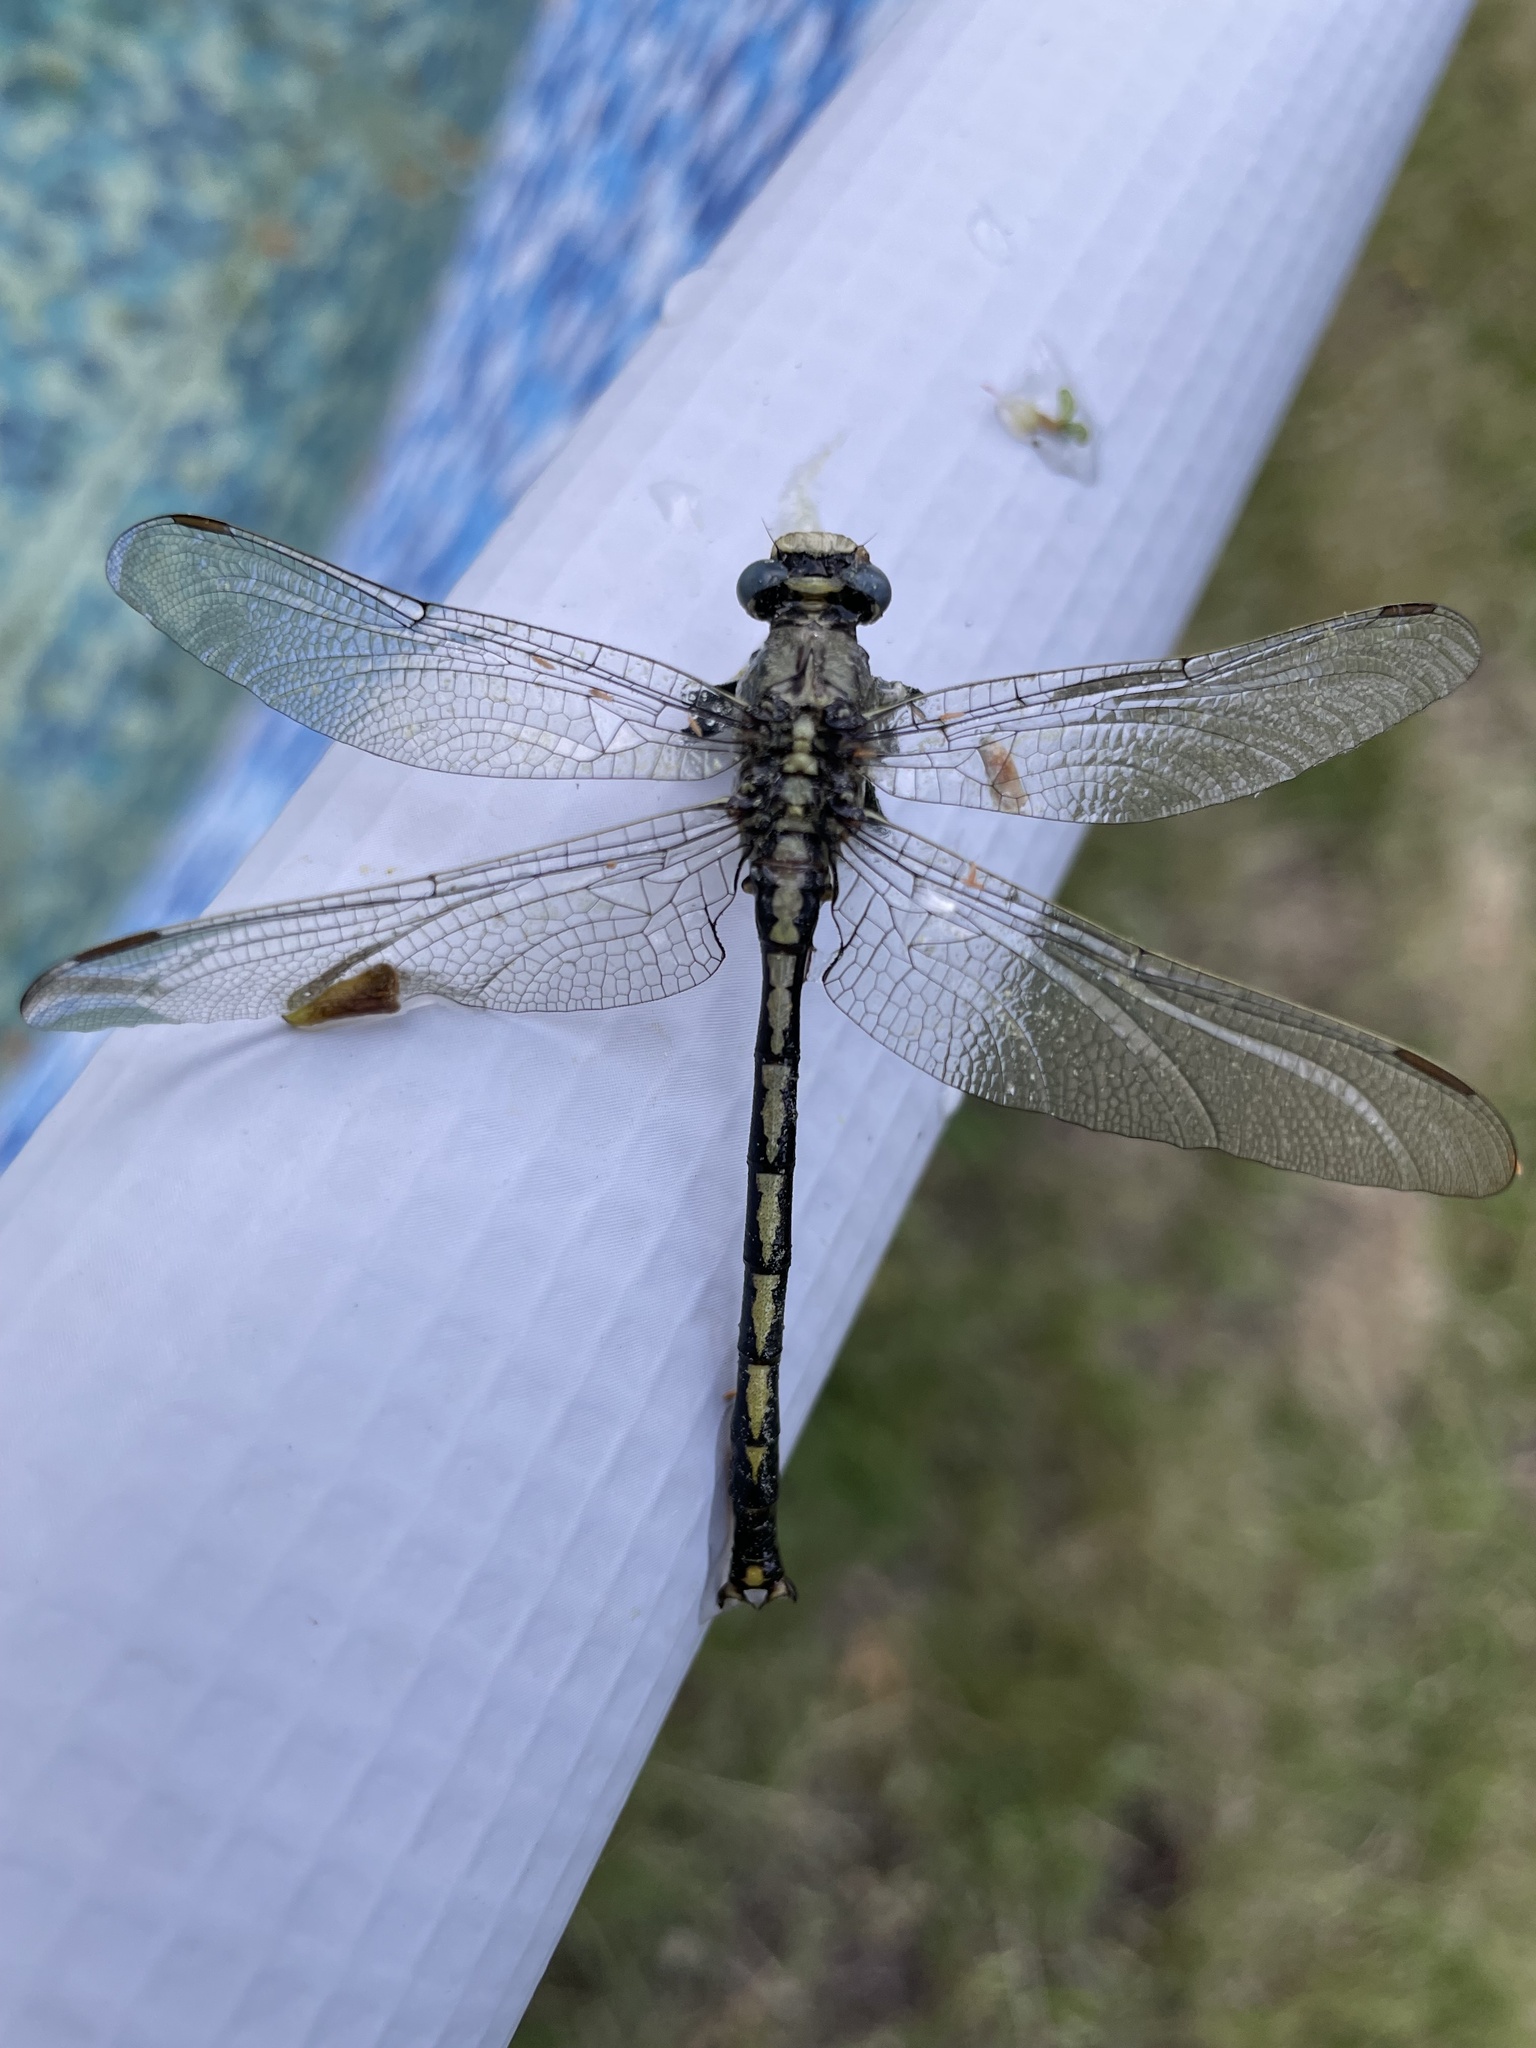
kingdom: Animalia
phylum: Arthropoda
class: Insecta
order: Odonata
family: Gomphidae
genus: Arigomphus
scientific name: Arigomphus cornutus
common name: Horned clubtail
